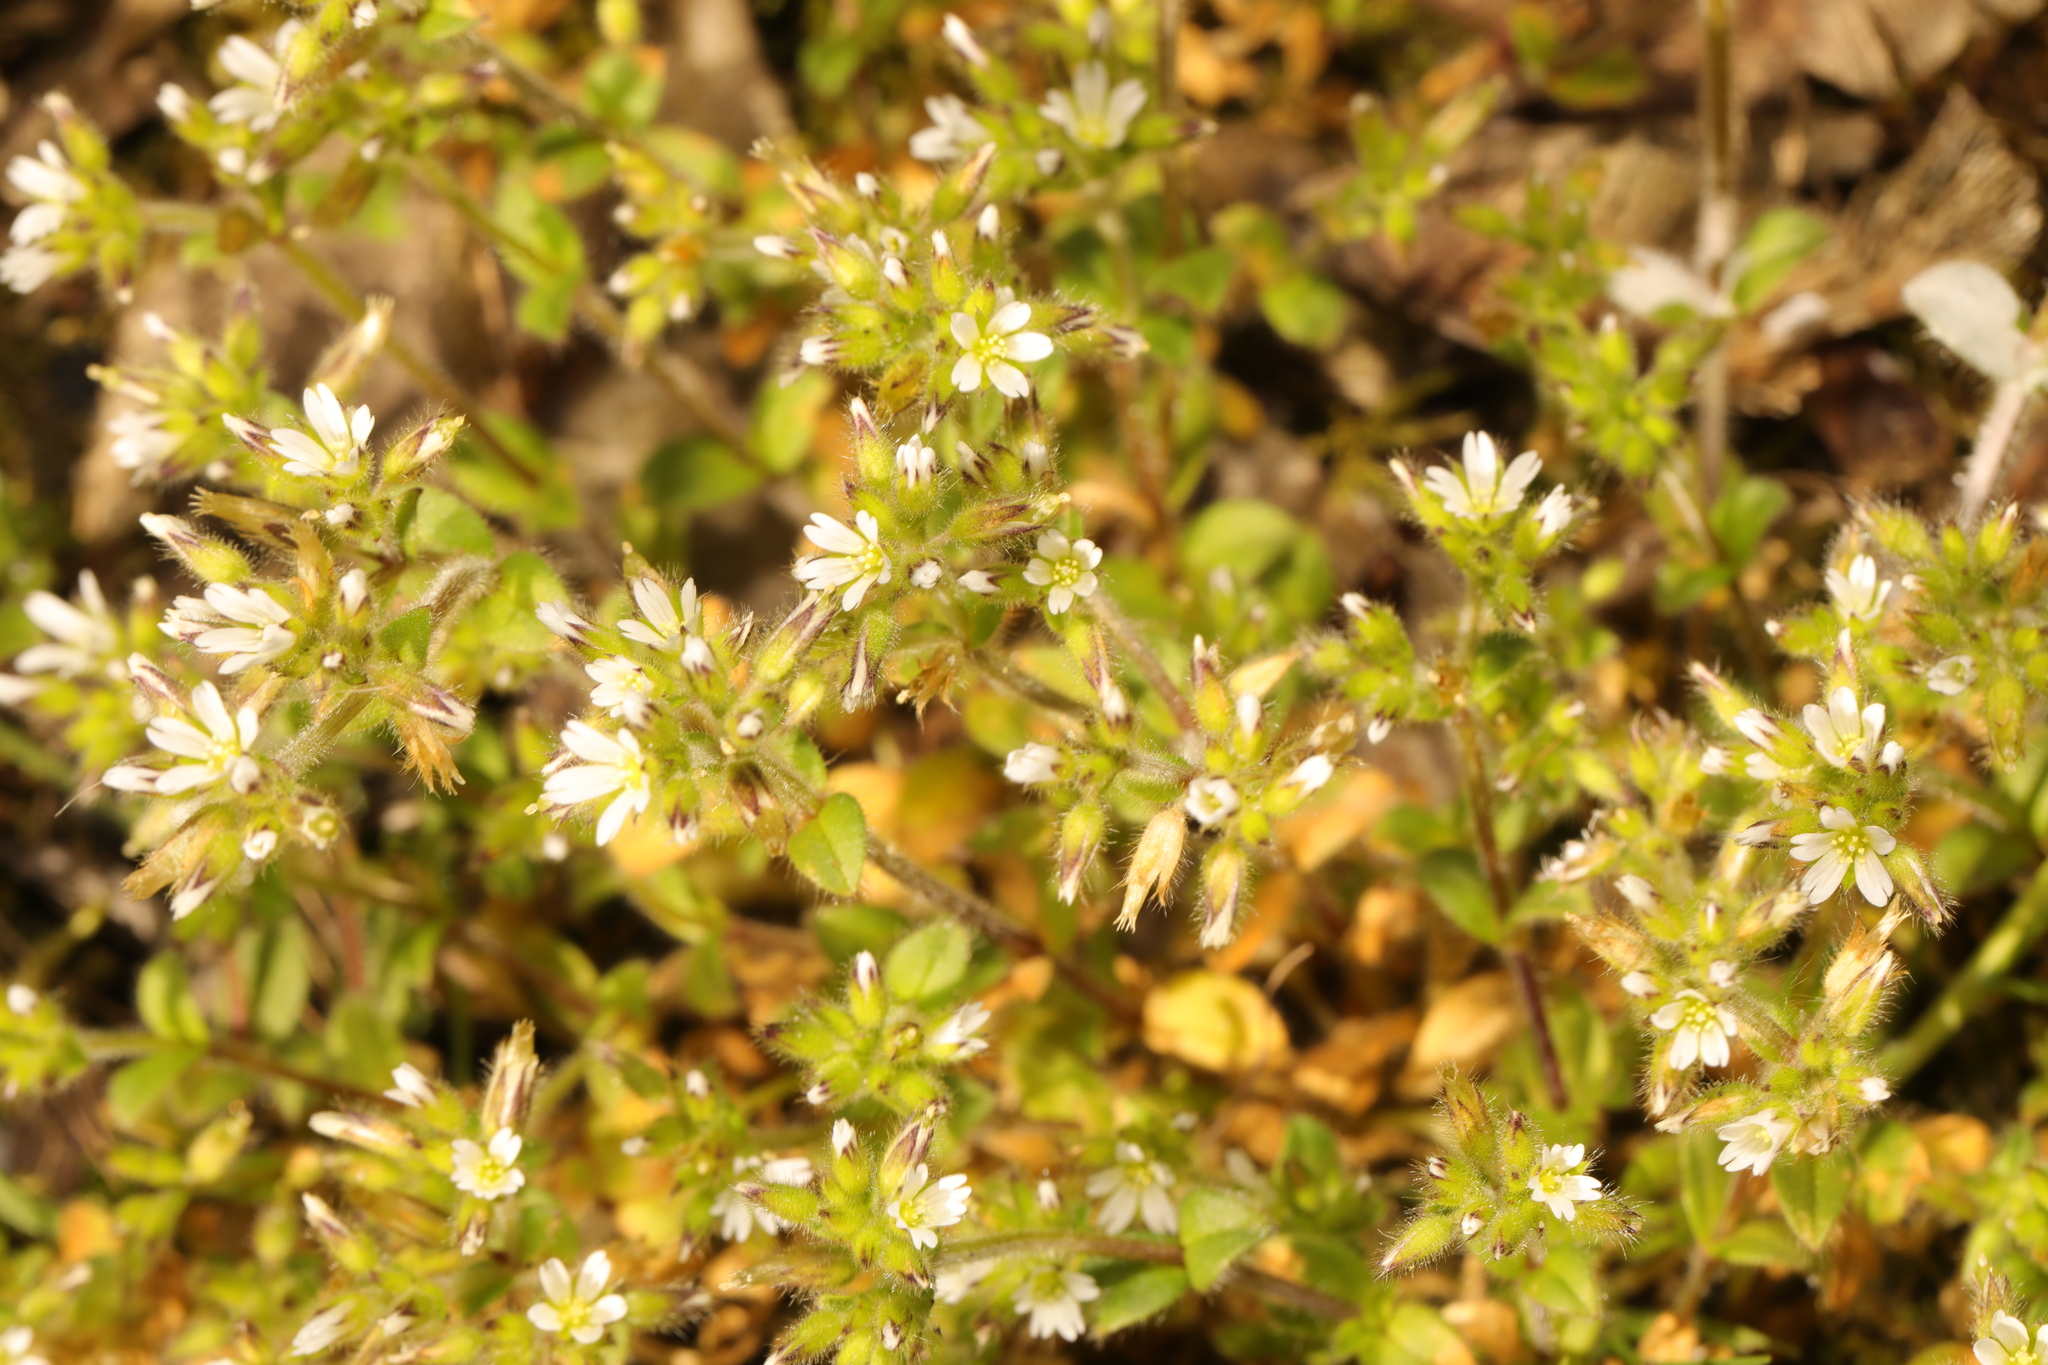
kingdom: Plantae
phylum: Tracheophyta
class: Magnoliopsida
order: Caryophyllales
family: Caryophyllaceae
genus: Cerastium
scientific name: Cerastium glomeratum
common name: Sticky chickweed
